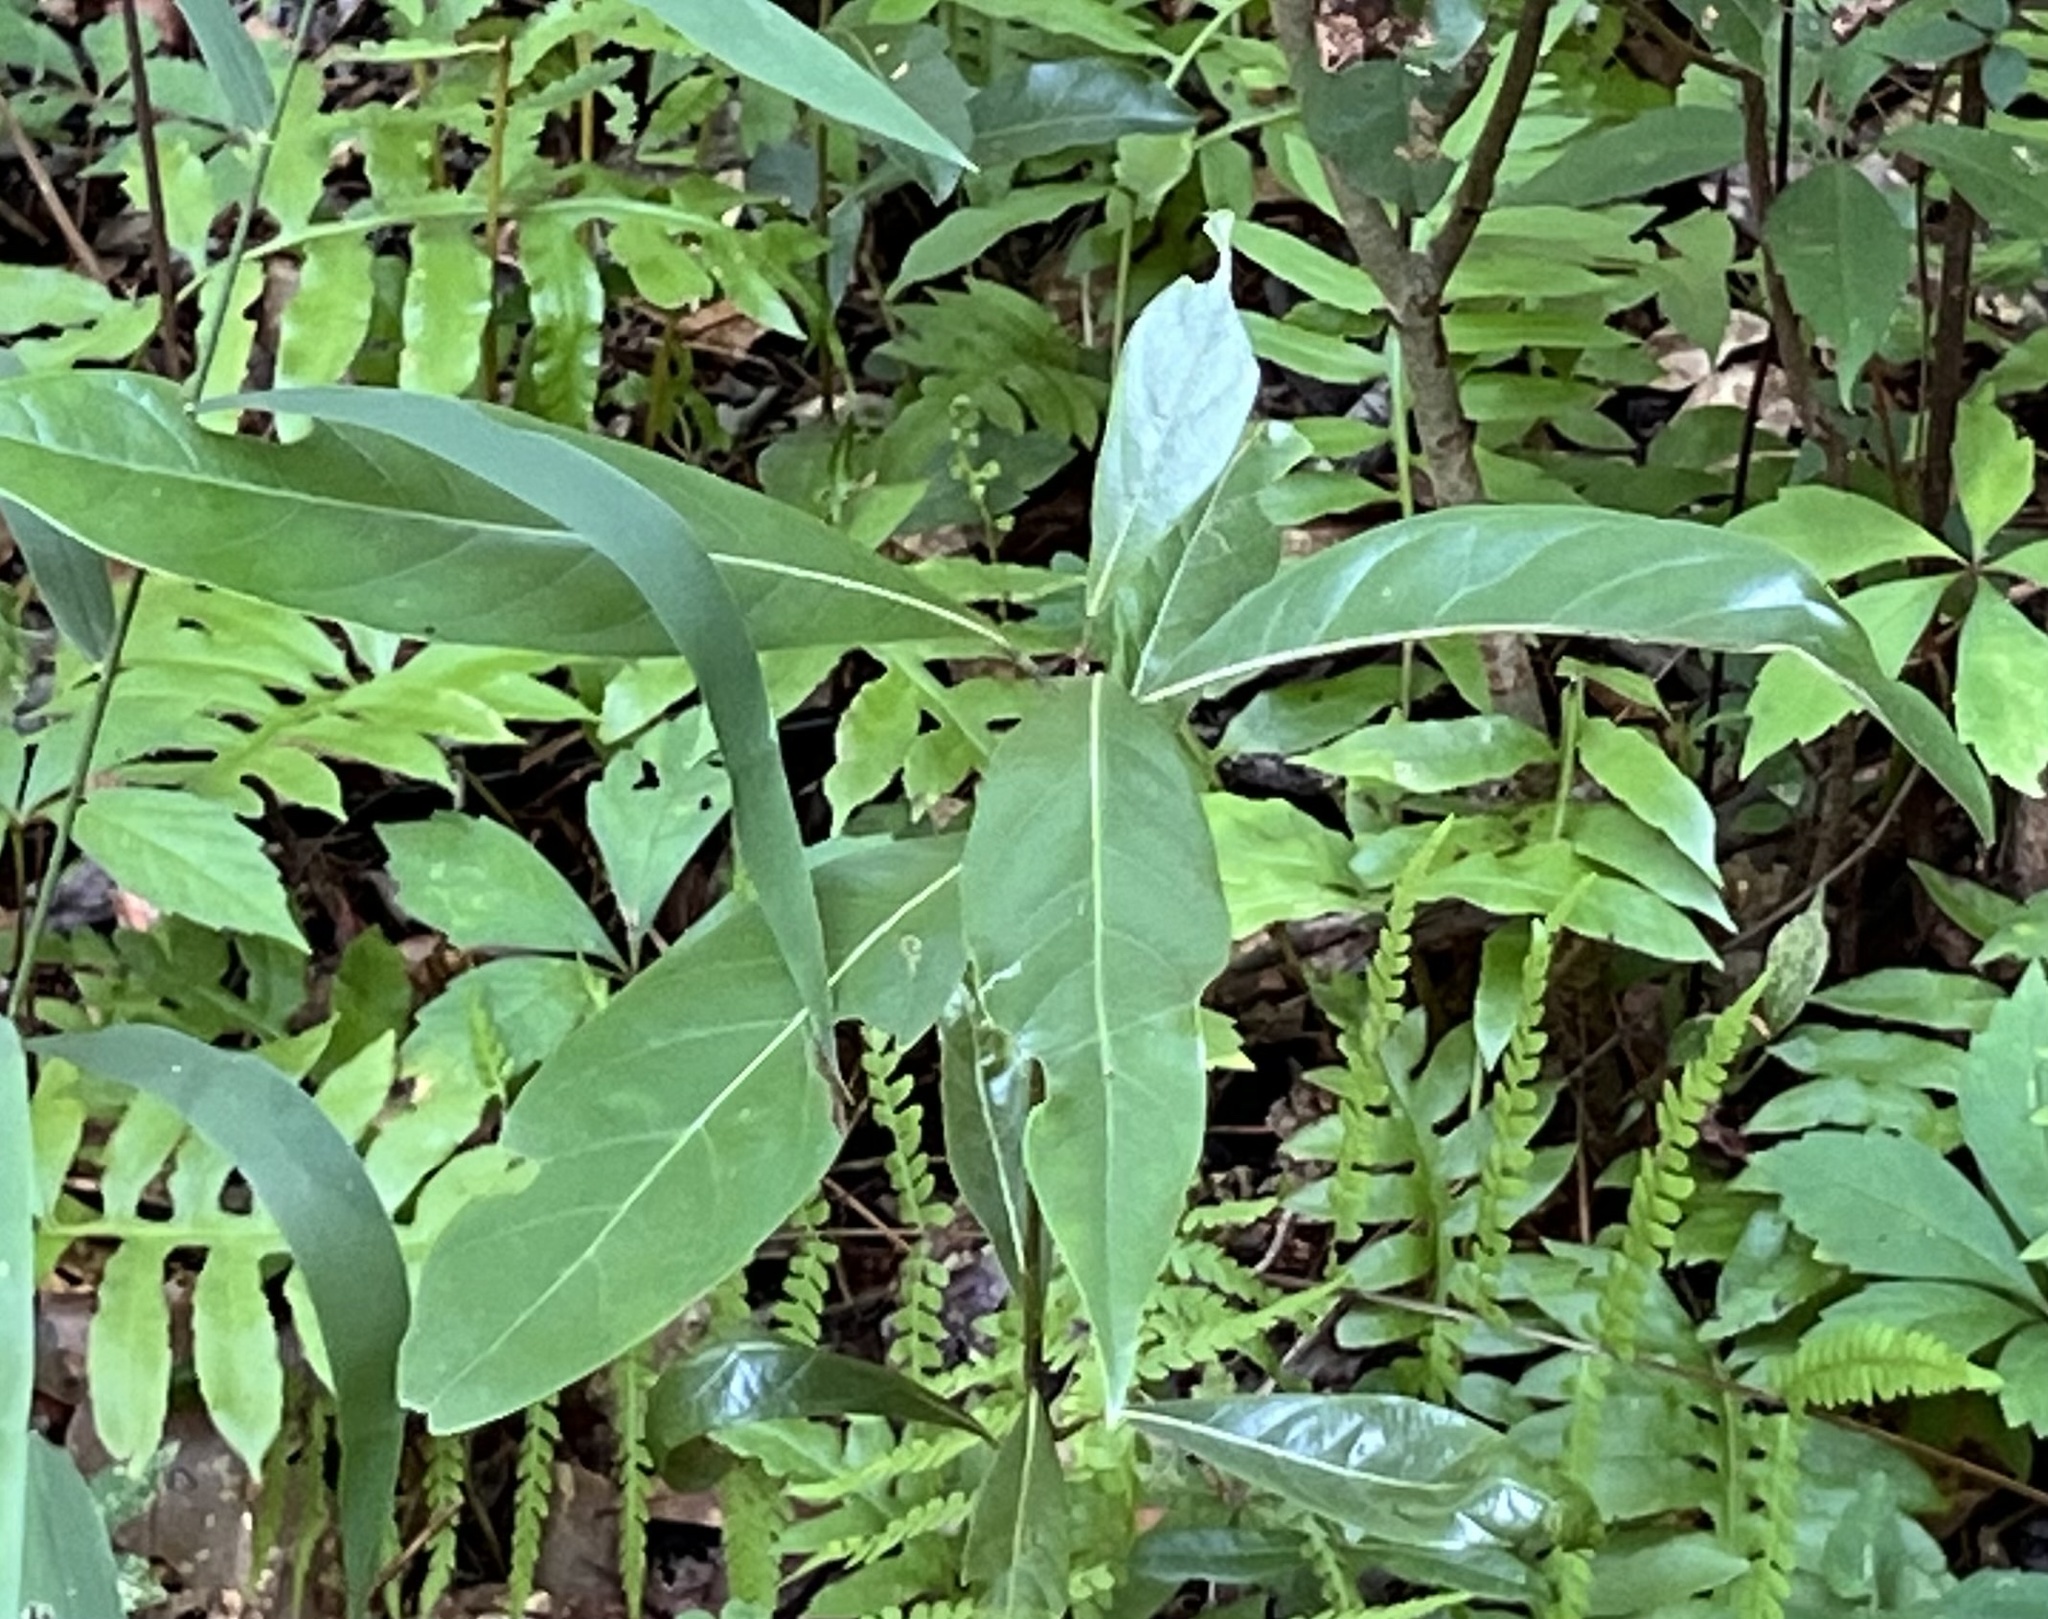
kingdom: Plantae
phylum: Tracheophyta
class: Magnoliopsida
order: Laurales
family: Lauraceae
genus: Persea
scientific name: Persea palustris
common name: Swampbay
